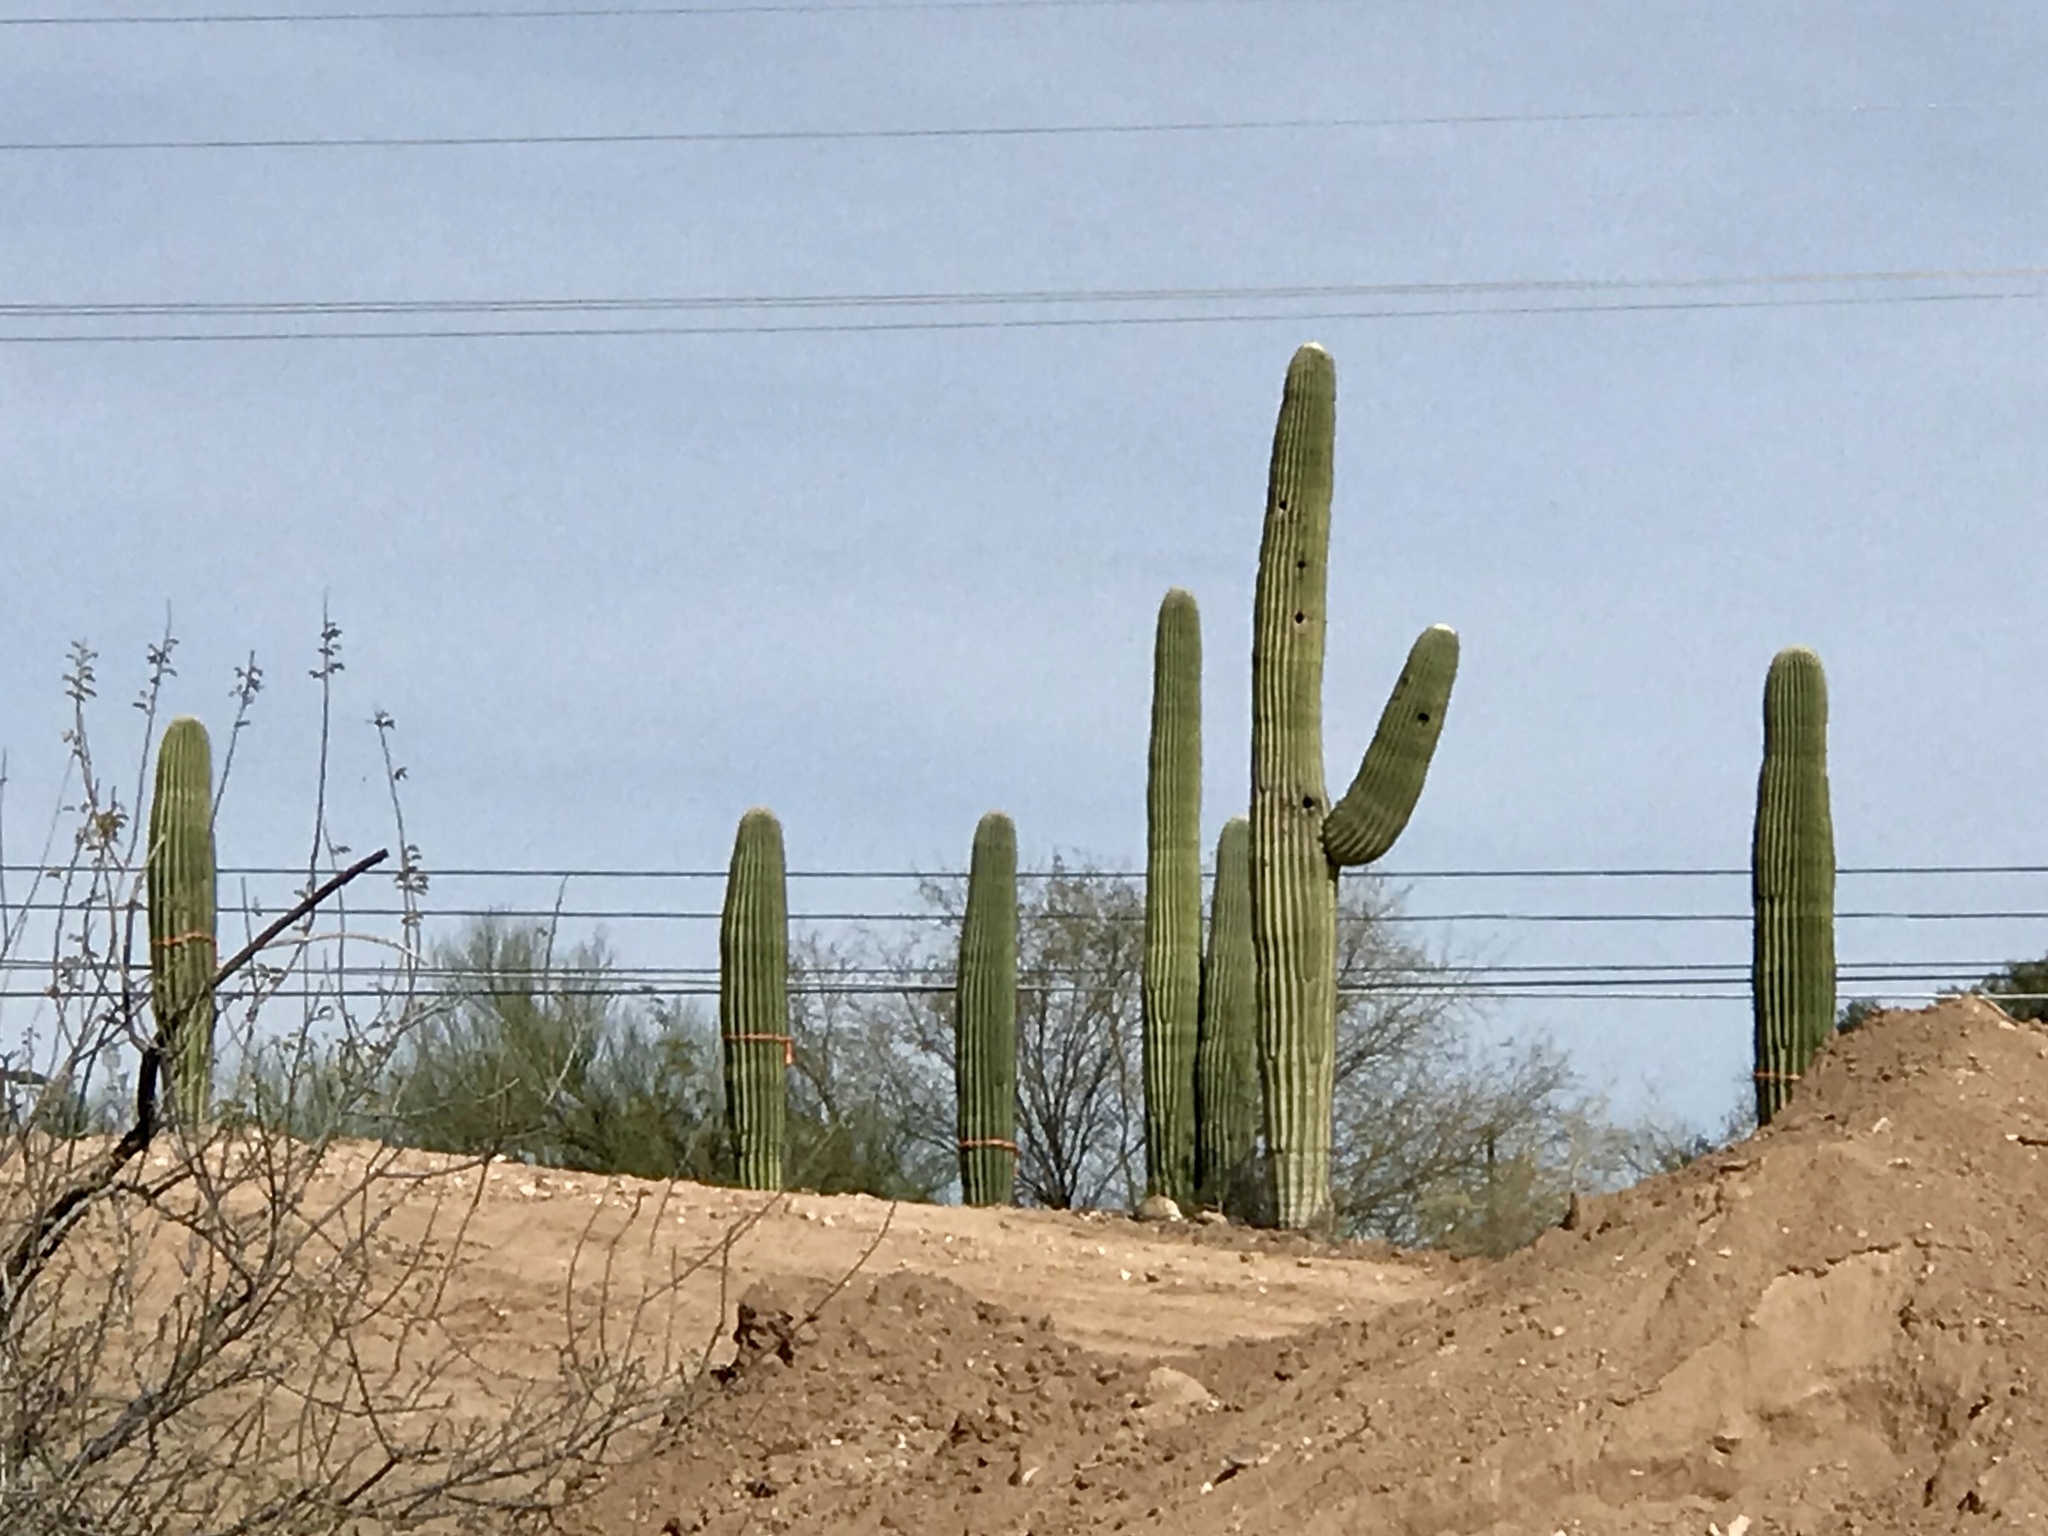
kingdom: Plantae
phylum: Tracheophyta
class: Magnoliopsida
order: Caryophyllales
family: Cactaceae
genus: Carnegiea
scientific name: Carnegiea gigantea
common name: Saguaro
